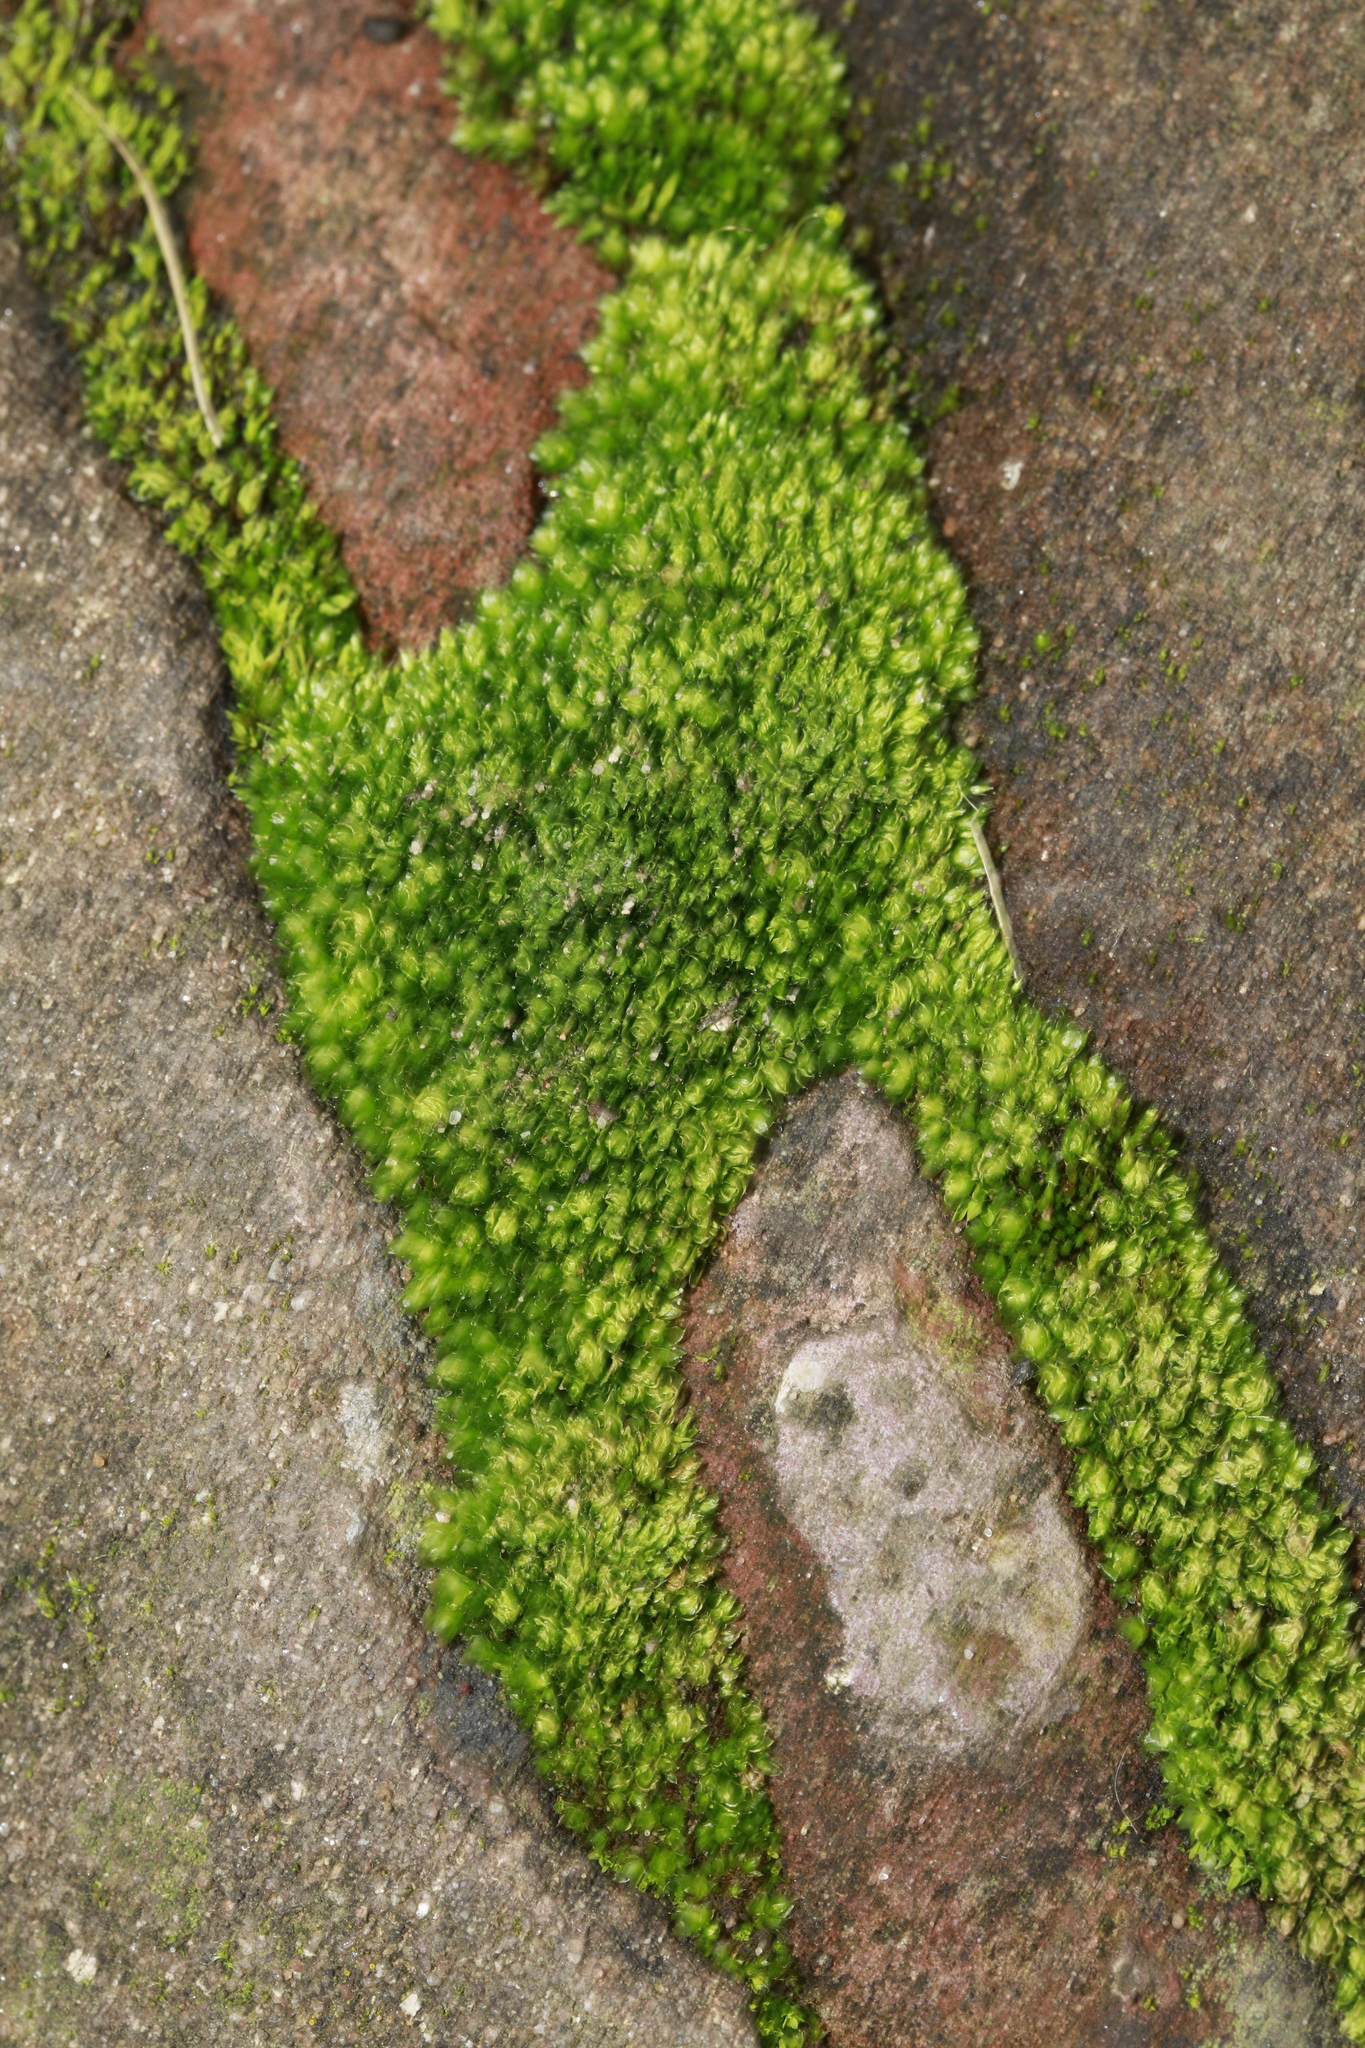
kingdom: Plantae
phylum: Bryophyta
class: Bryopsida
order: Bryales
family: Bryaceae
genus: Rosulabryum
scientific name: Rosulabryum capillare
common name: Capillary thread-moss
